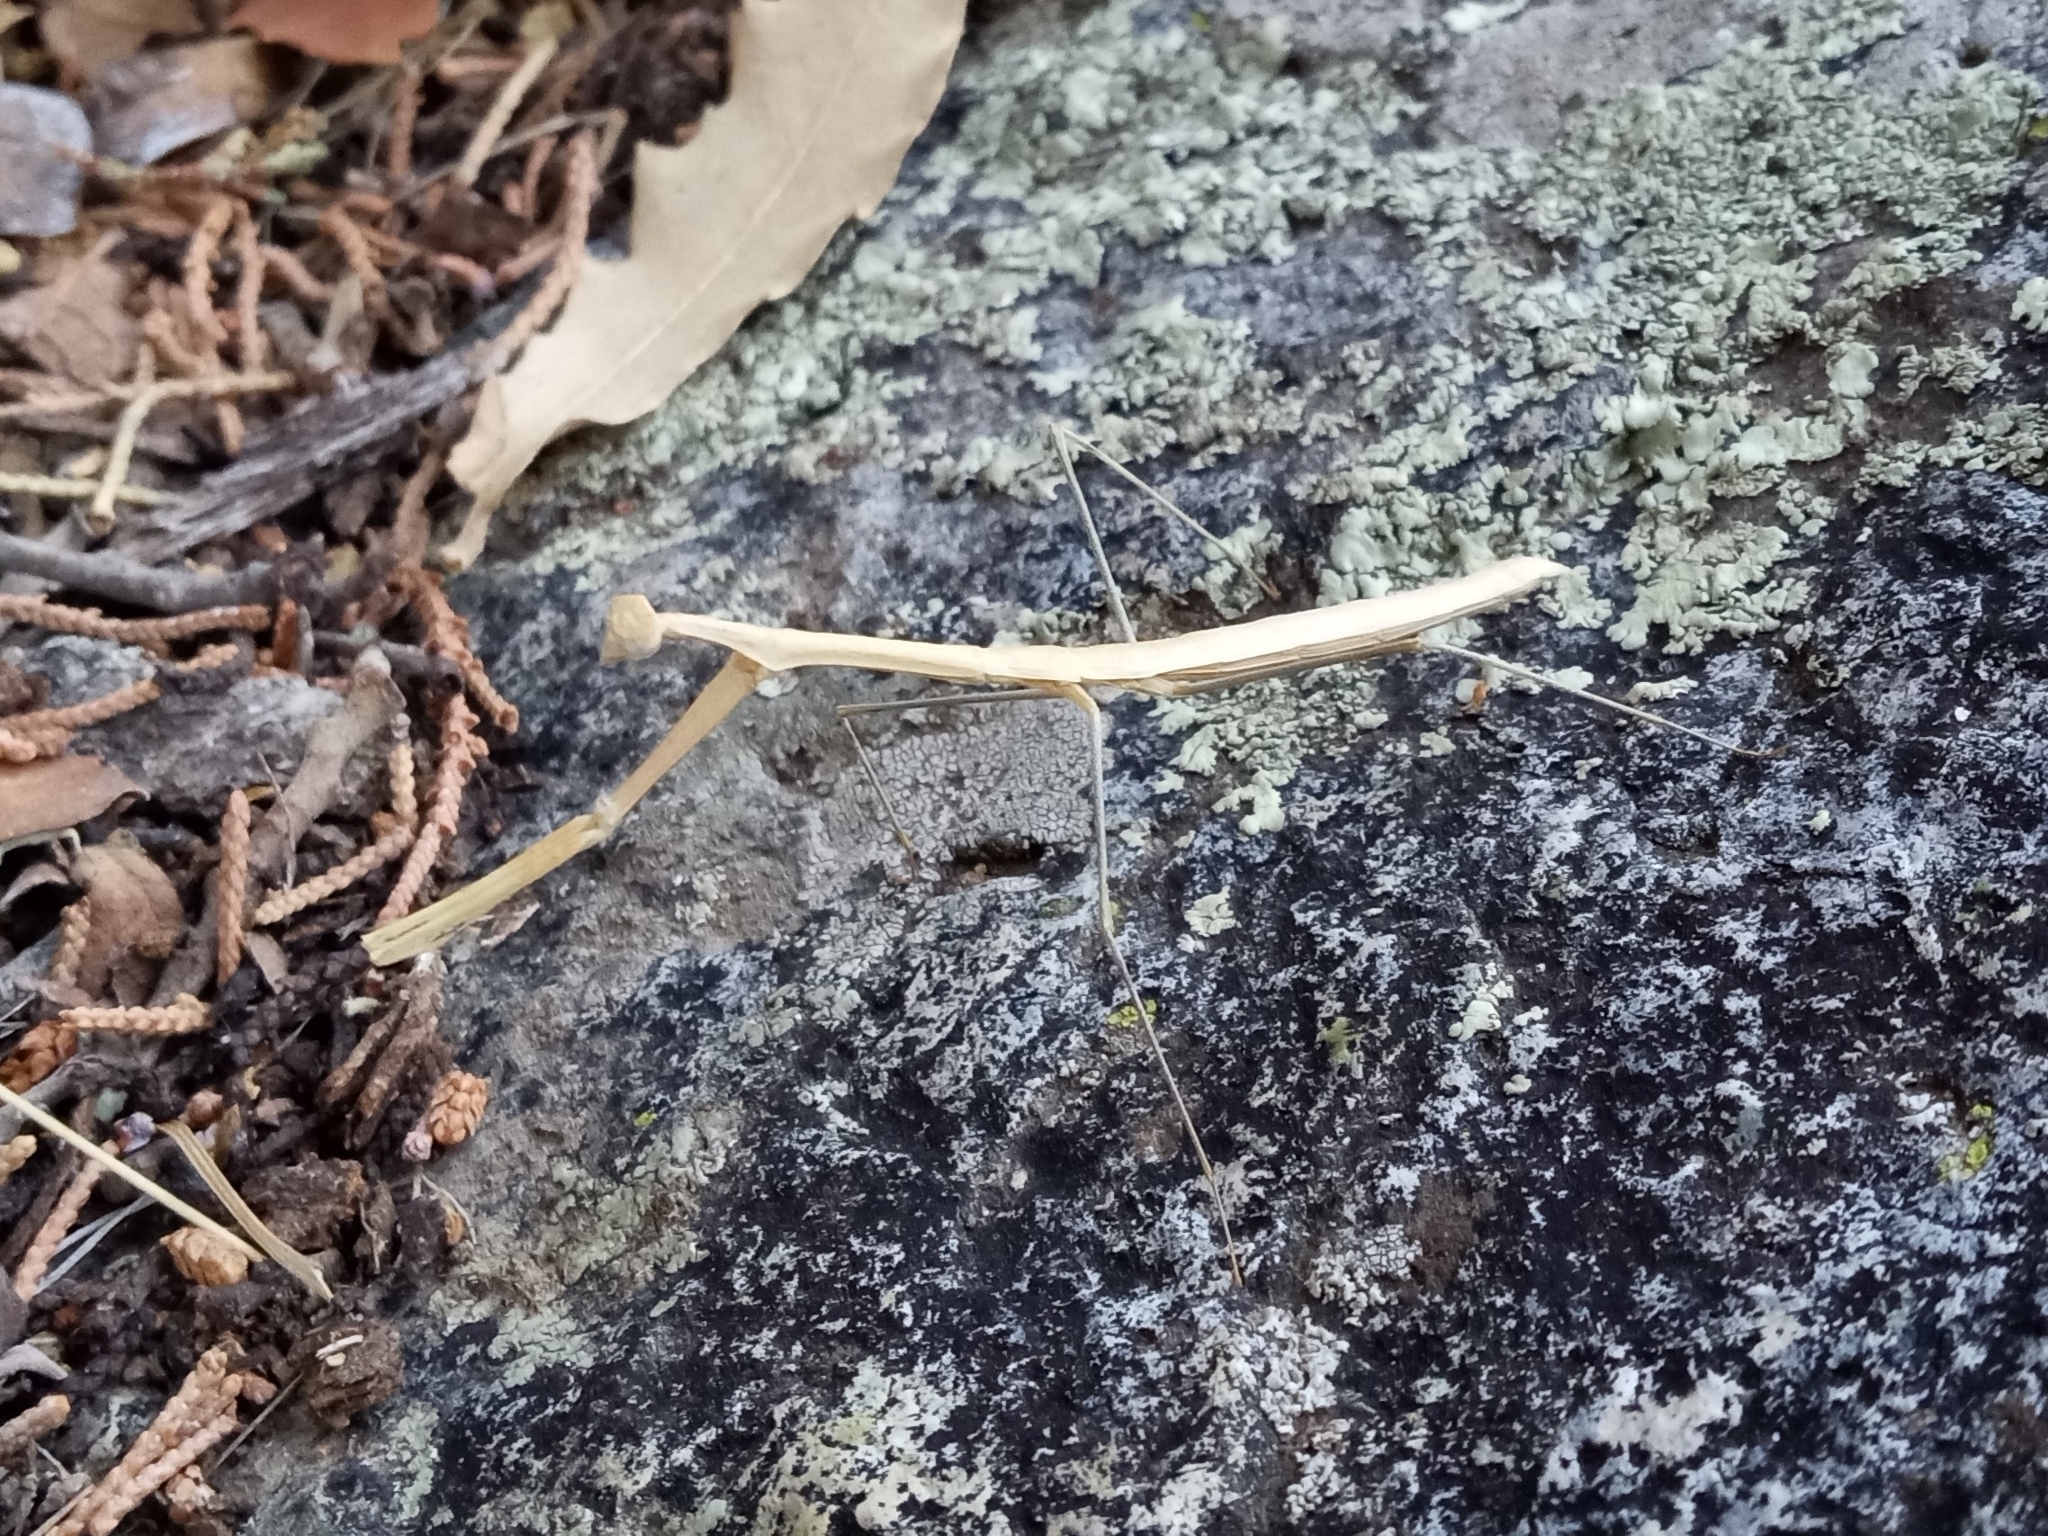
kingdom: Animalia
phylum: Arthropoda
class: Insecta
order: Mantodea
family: Thespidae
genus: Bistanta
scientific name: Bistanta herema
